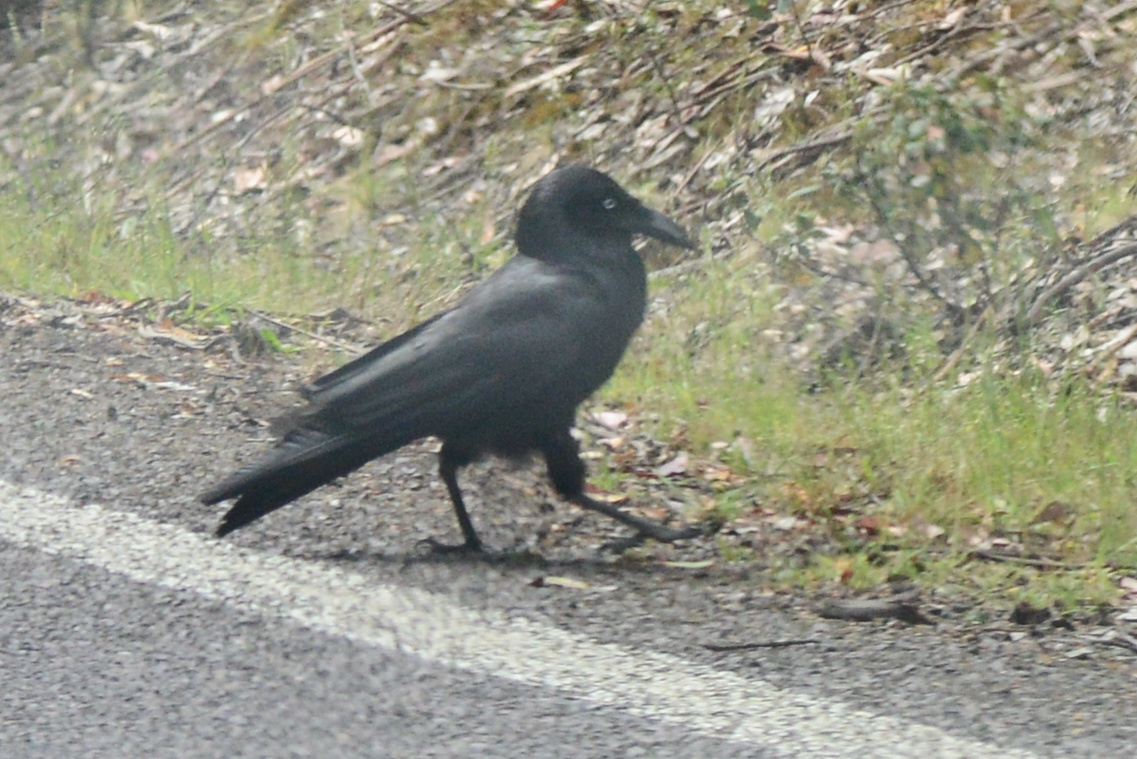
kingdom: Animalia
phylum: Chordata
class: Aves
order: Passeriformes
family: Corvidae
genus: Corvus
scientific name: Corvus tasmanicus
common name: Forest raven
